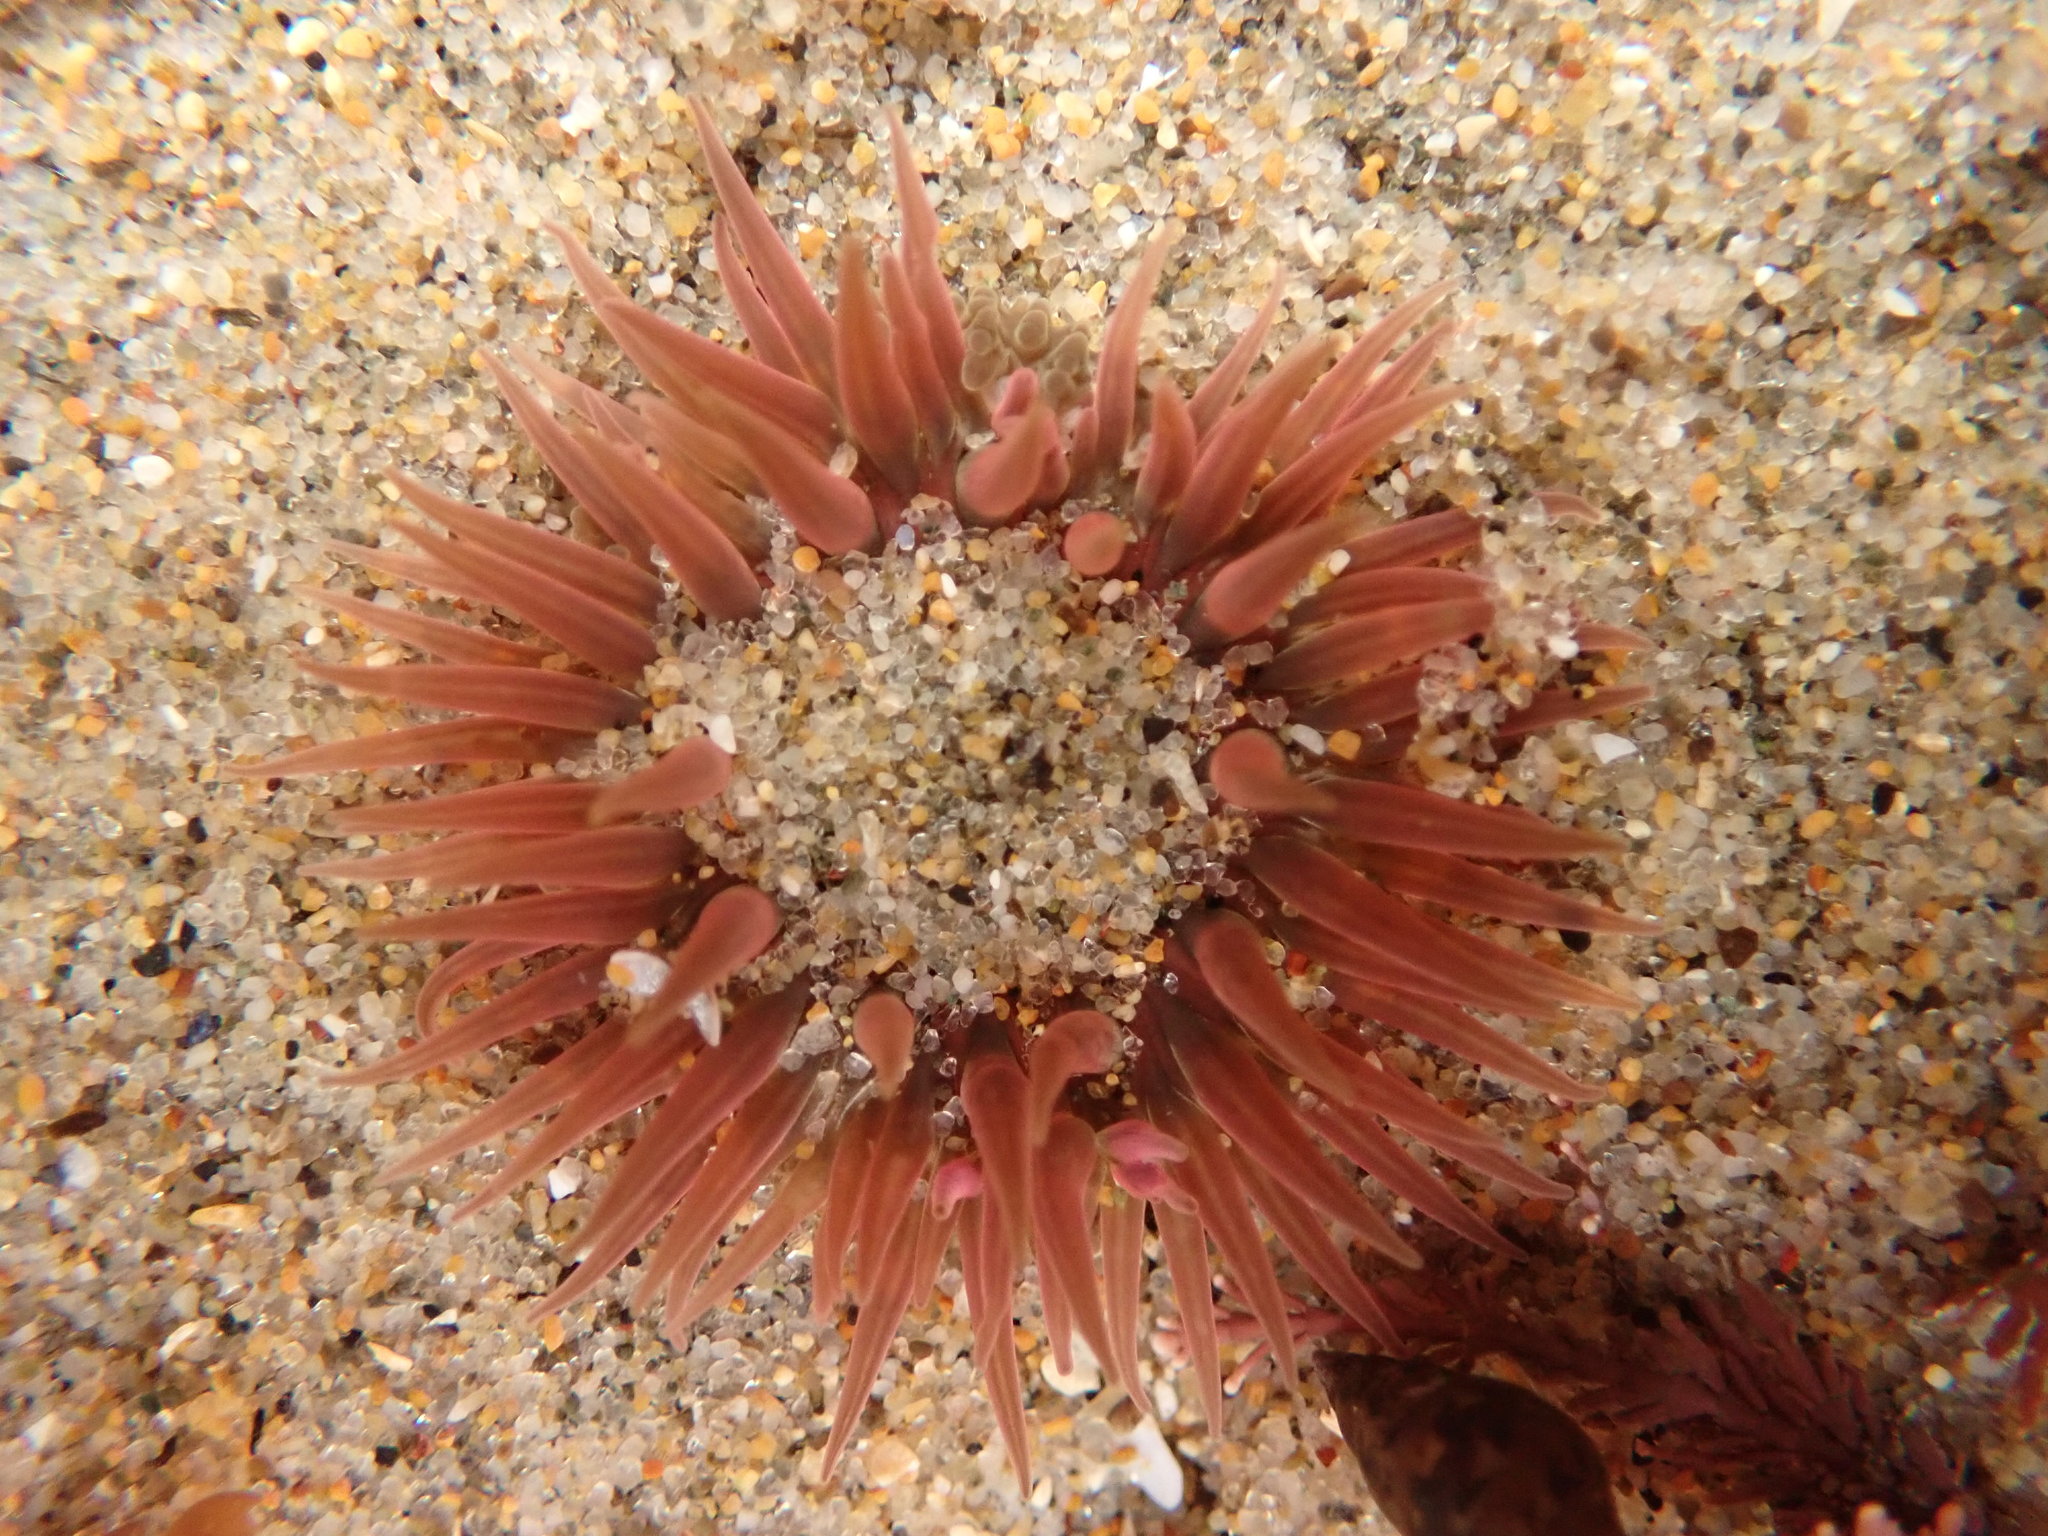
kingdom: Animalia
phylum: Cnidaria
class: Anthozoa
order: Actiniaria
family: Actiniidae
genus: Anthopleura
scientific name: Anthopleura artemisia
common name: Buried sea anemone
